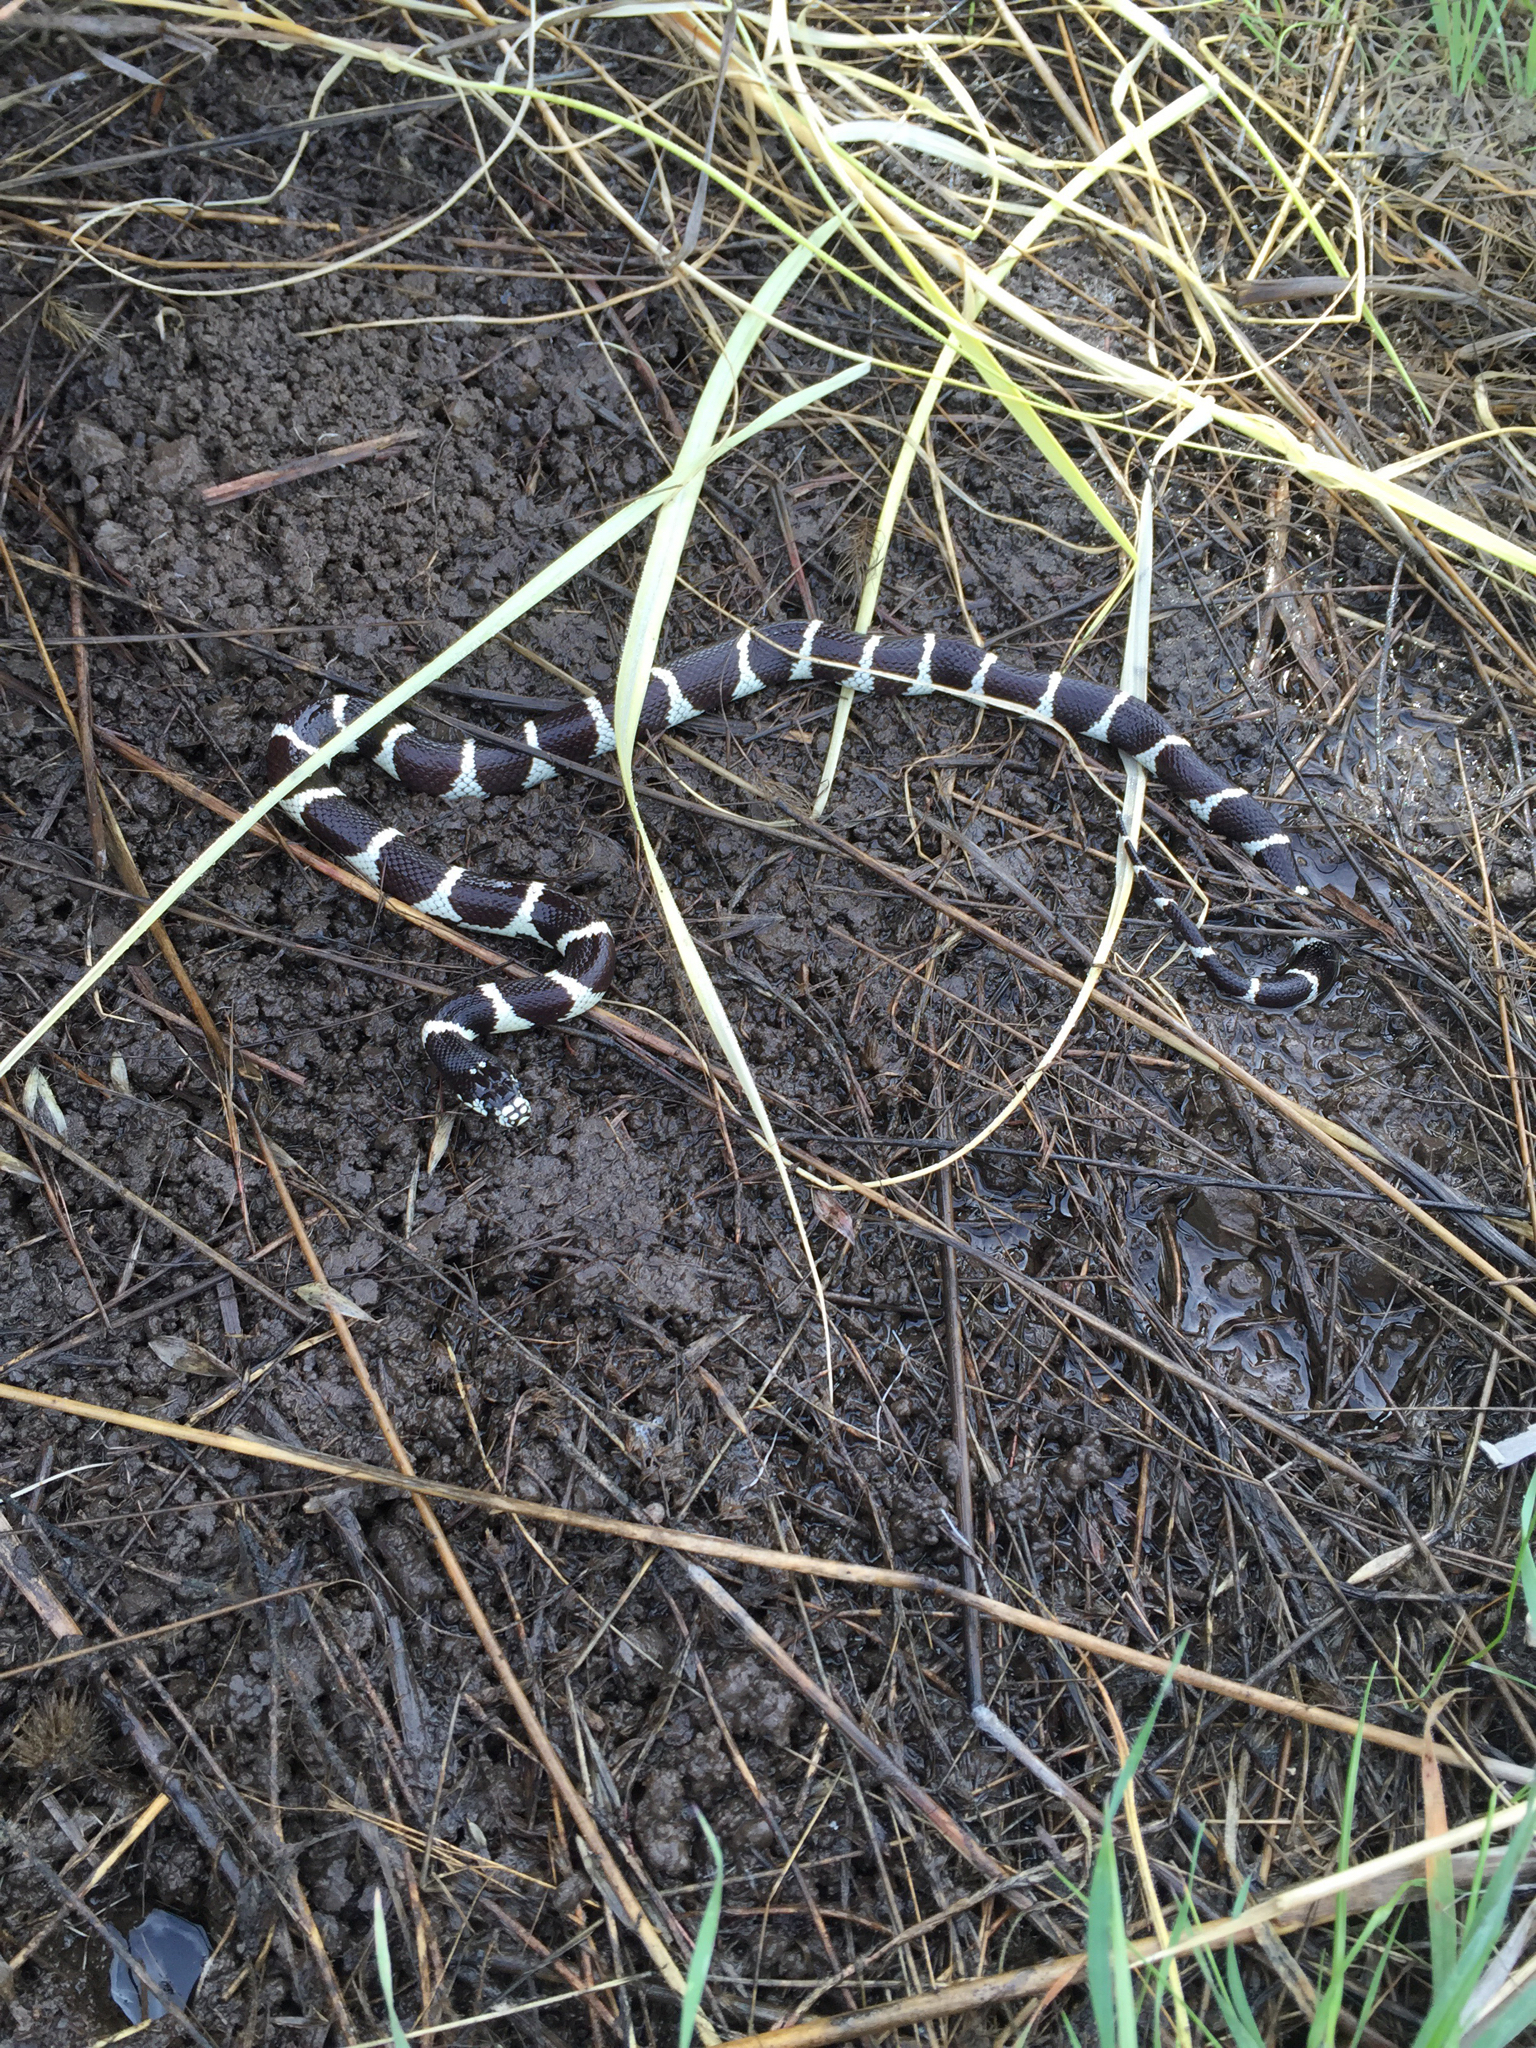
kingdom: Animalia
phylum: Chordata
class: Squamata
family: Colubridae
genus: Lampropeltis
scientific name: Lampropeltis californiae
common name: California kingsnake
